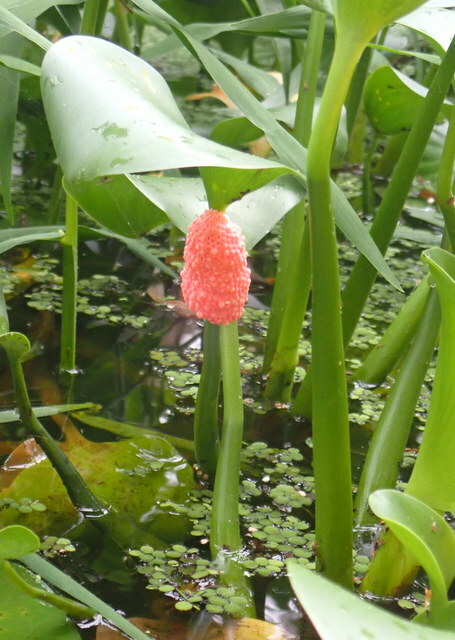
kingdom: Animalia
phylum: Mollusca
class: Gastropoda
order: Architaenioglossa
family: Ampullariidae
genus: Pomacea
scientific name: Pomacea maculata
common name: Giant applesnail
